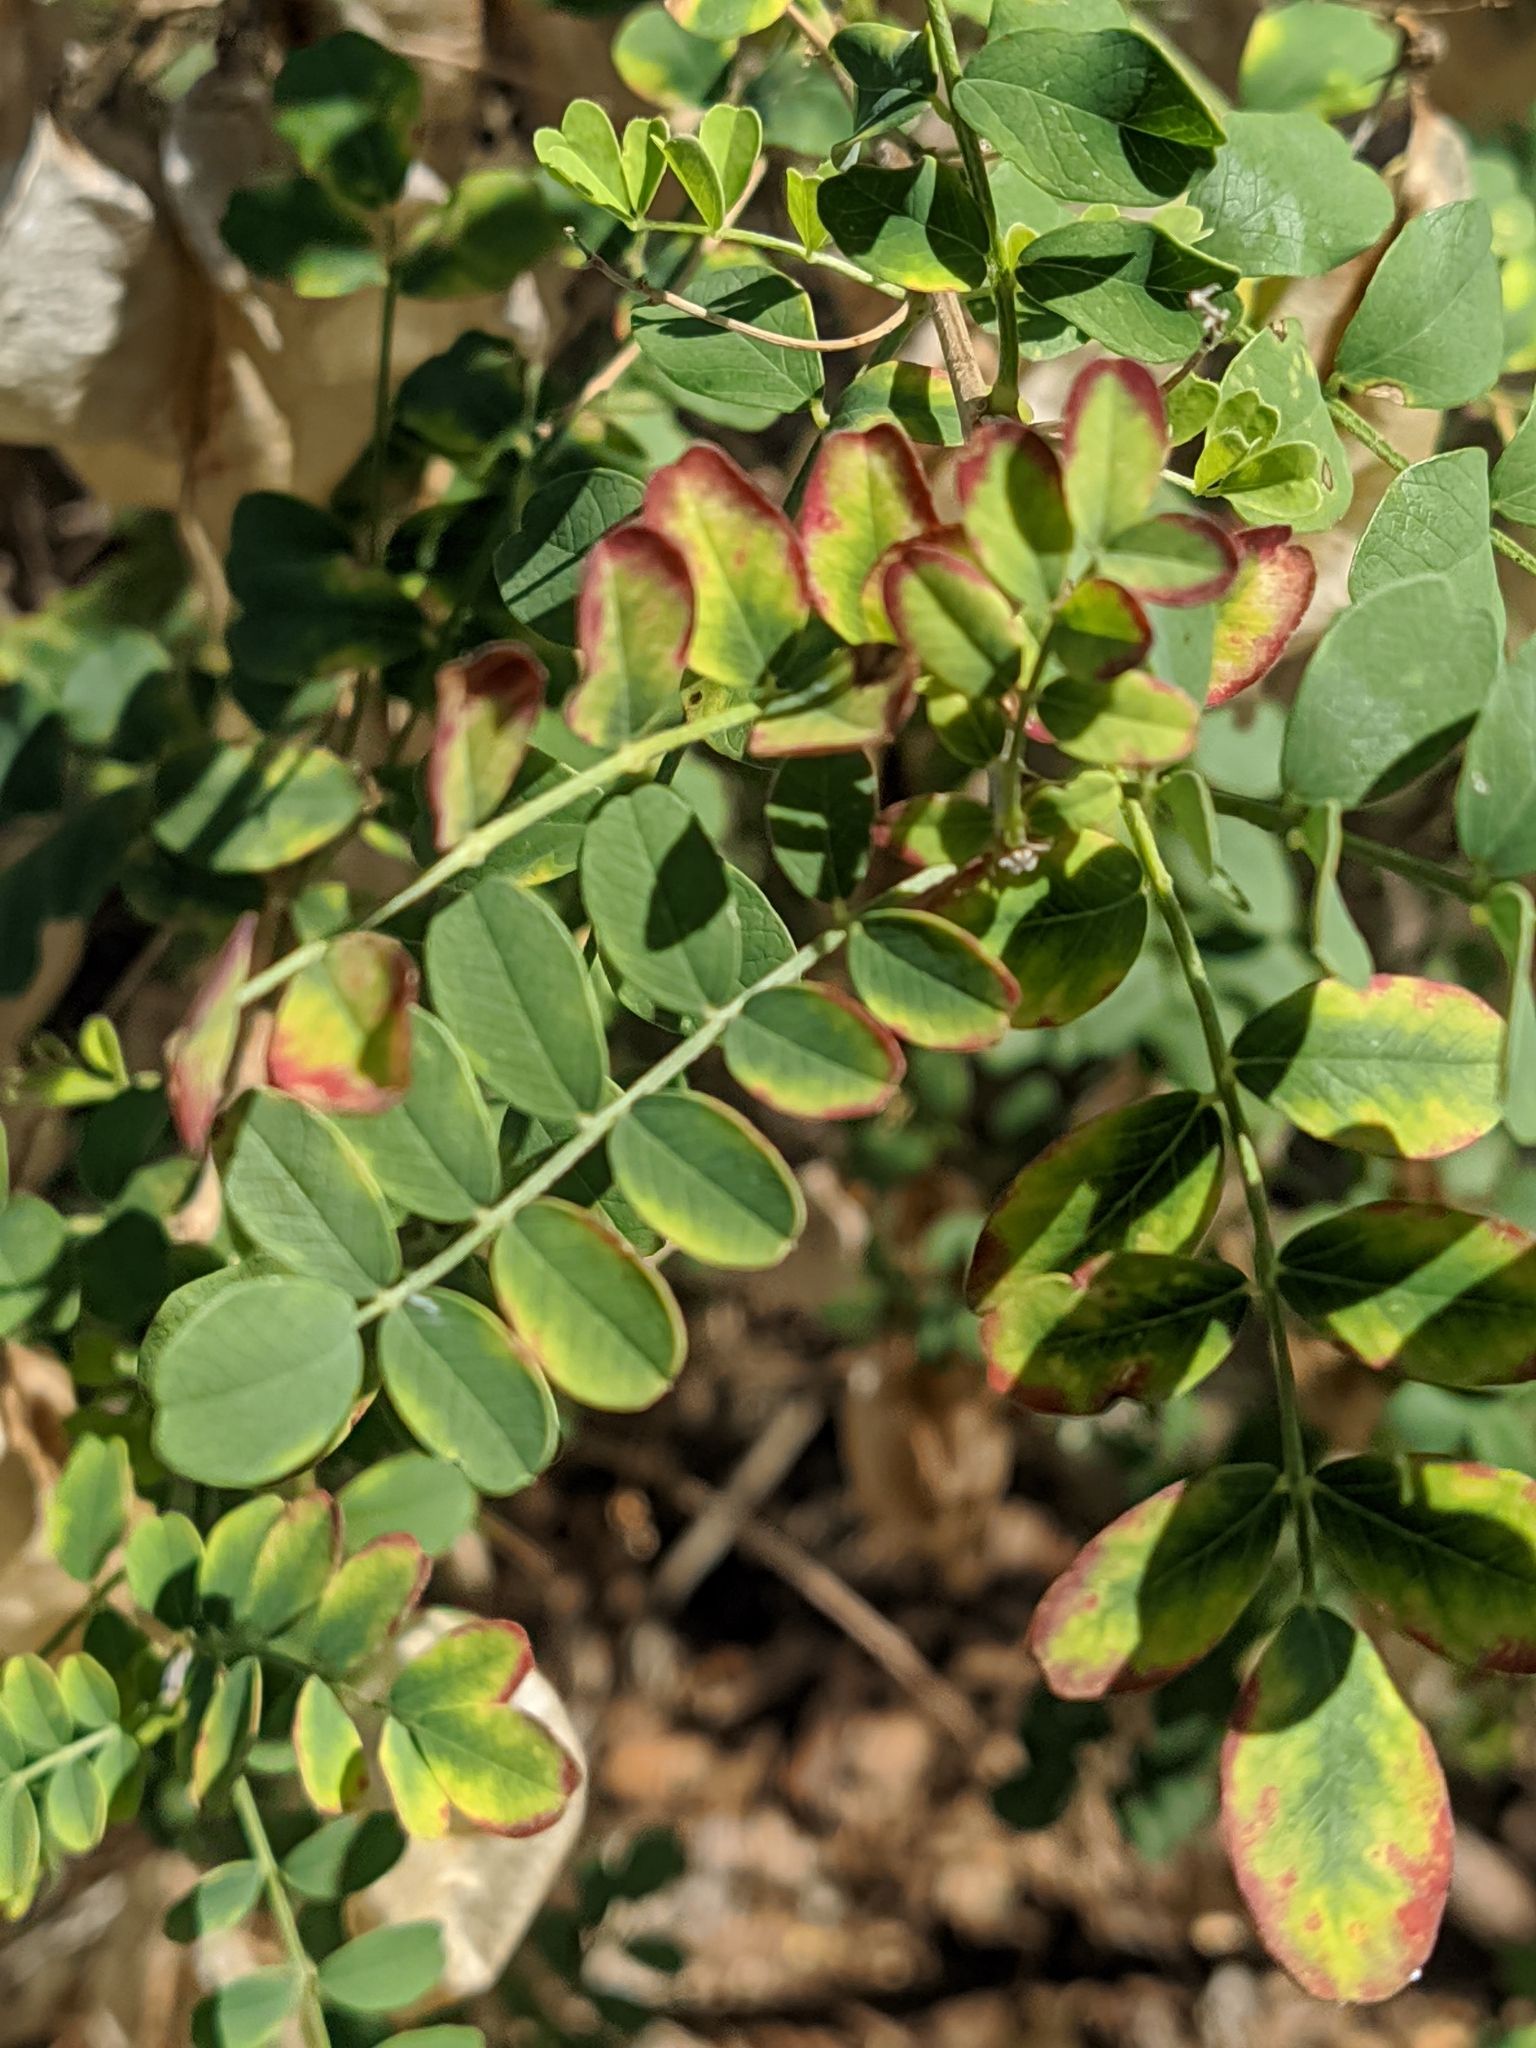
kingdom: Plantae
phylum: Tracheophyta
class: Magnoliopsida
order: Fabales
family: Fabaceae
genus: Colutea
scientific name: Colutea arborescens
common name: Bladder-senna
